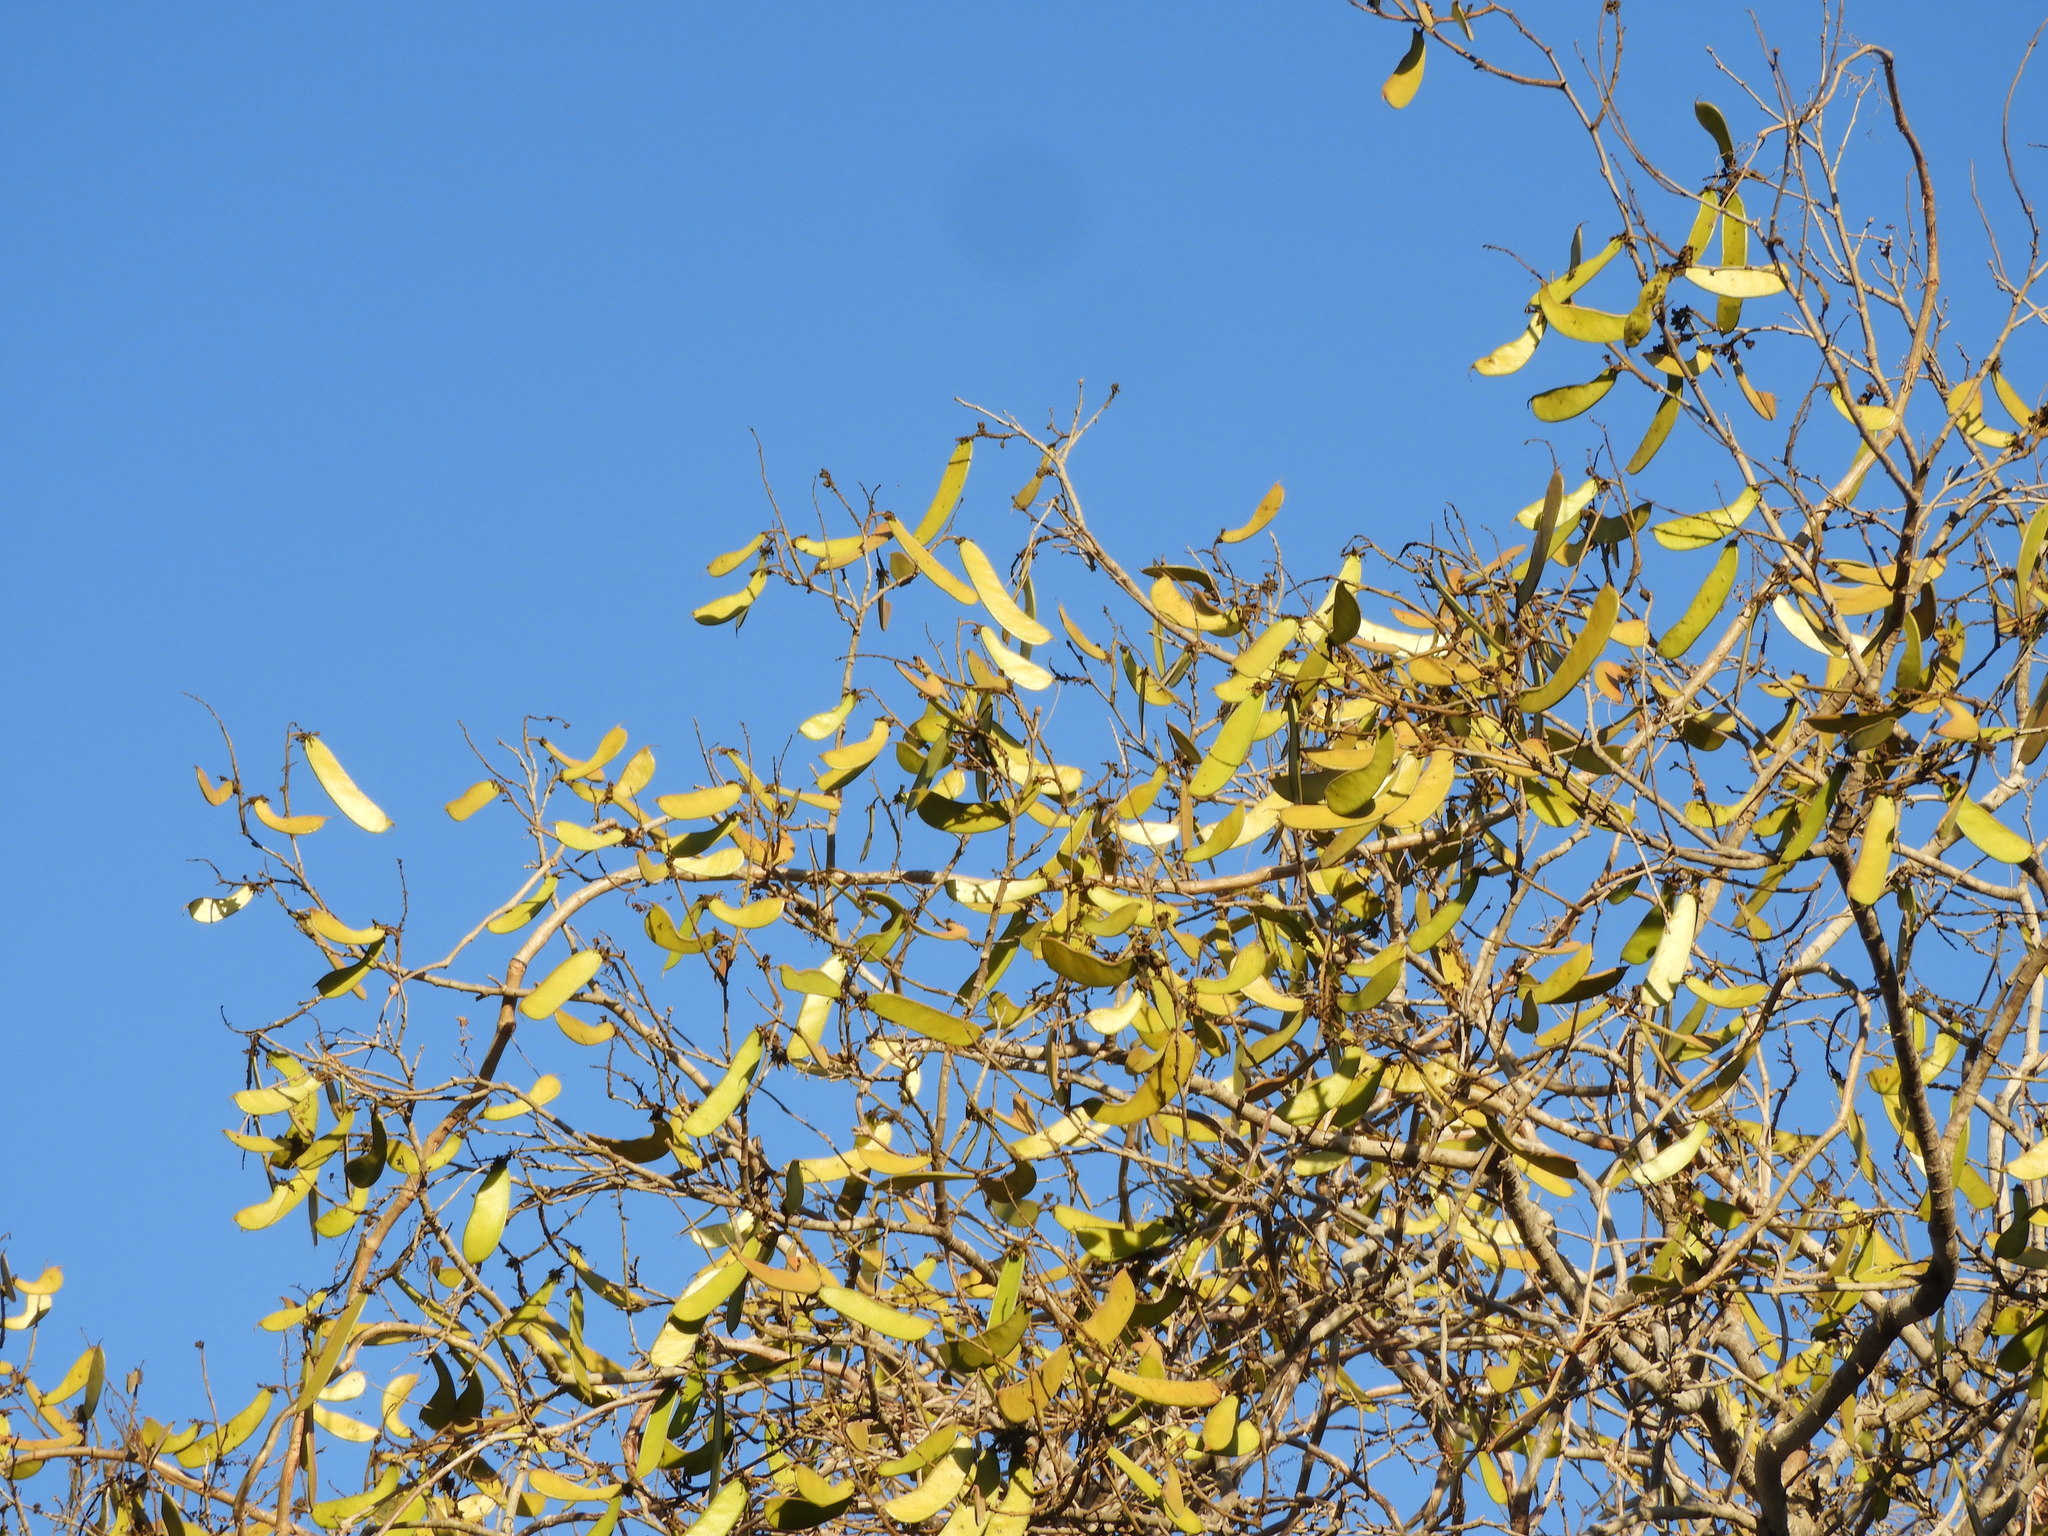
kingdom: Plantae
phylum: Tracheophyta
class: Magnoliopsida
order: Fabales
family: Fabaceae
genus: Cenostigma
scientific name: Cenostigma eriostachys
